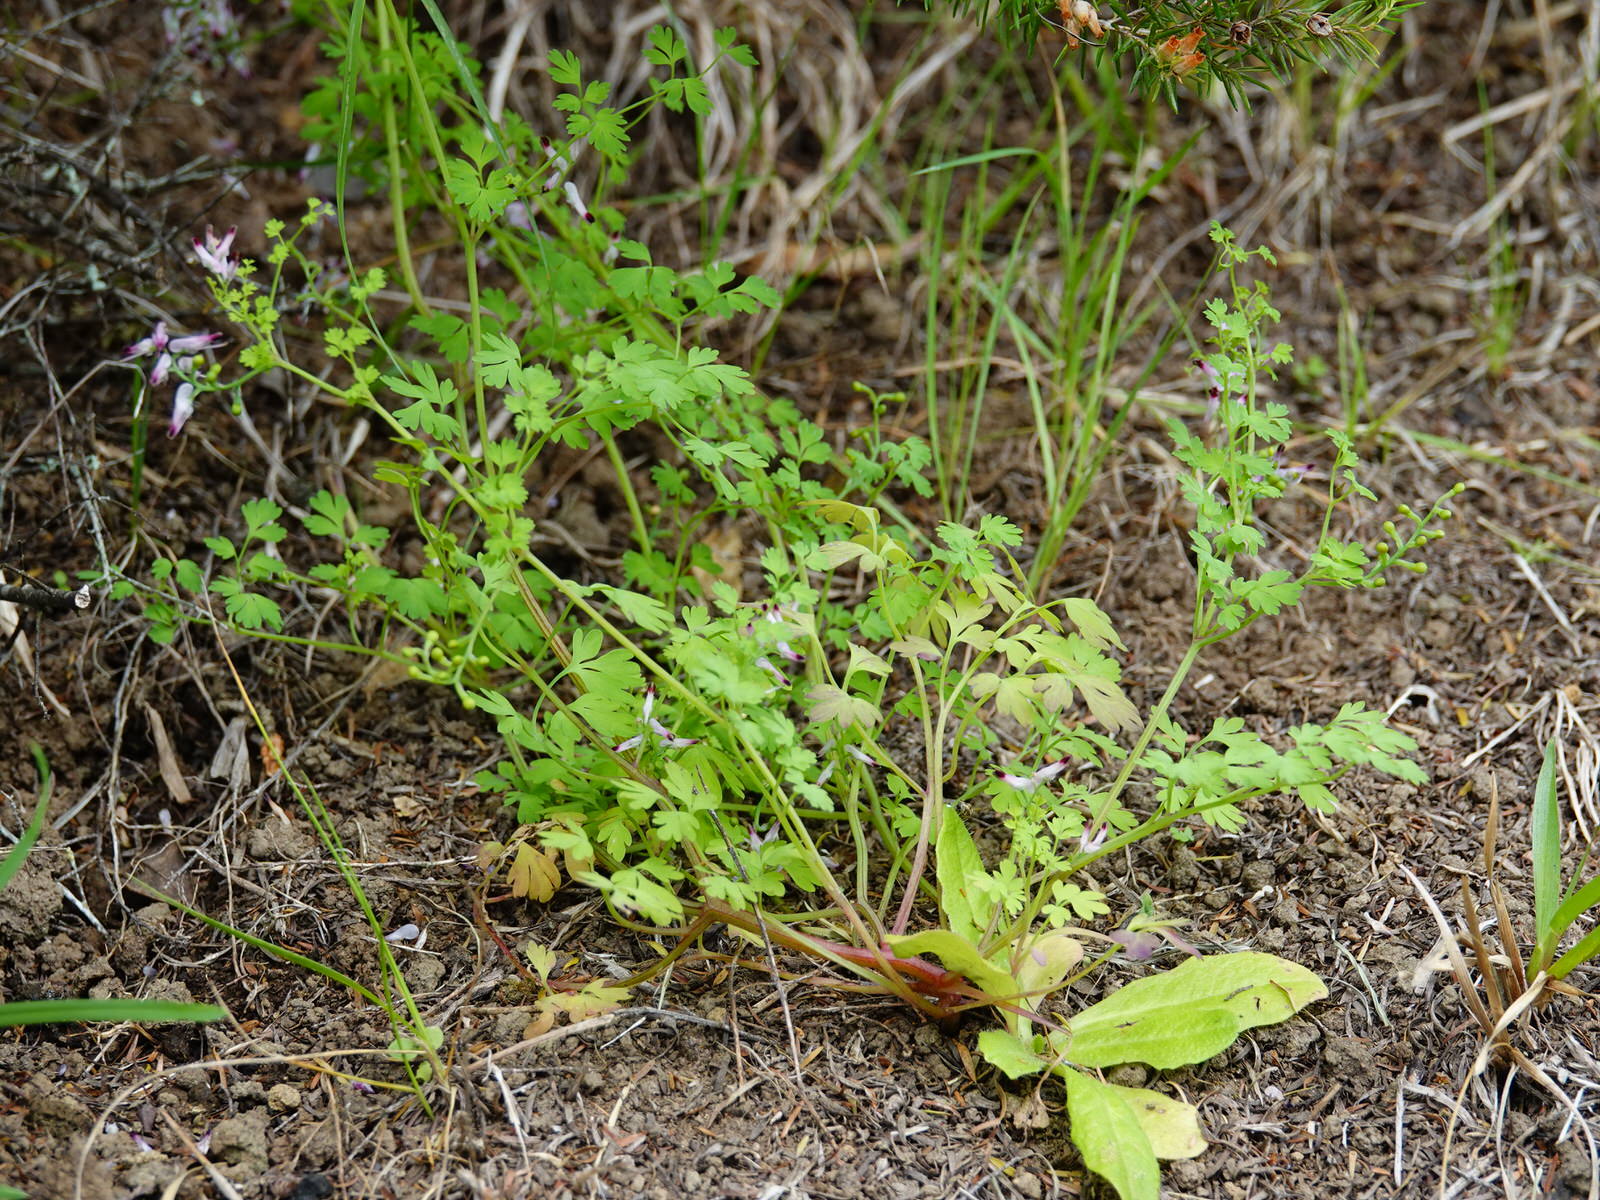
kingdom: Plantae
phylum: Tracheophyta
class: Magnoliopsida
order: Ranunculales
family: Papaveraceae
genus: Fumaria
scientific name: Fumaria muralis
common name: Common ramping-fumitory
